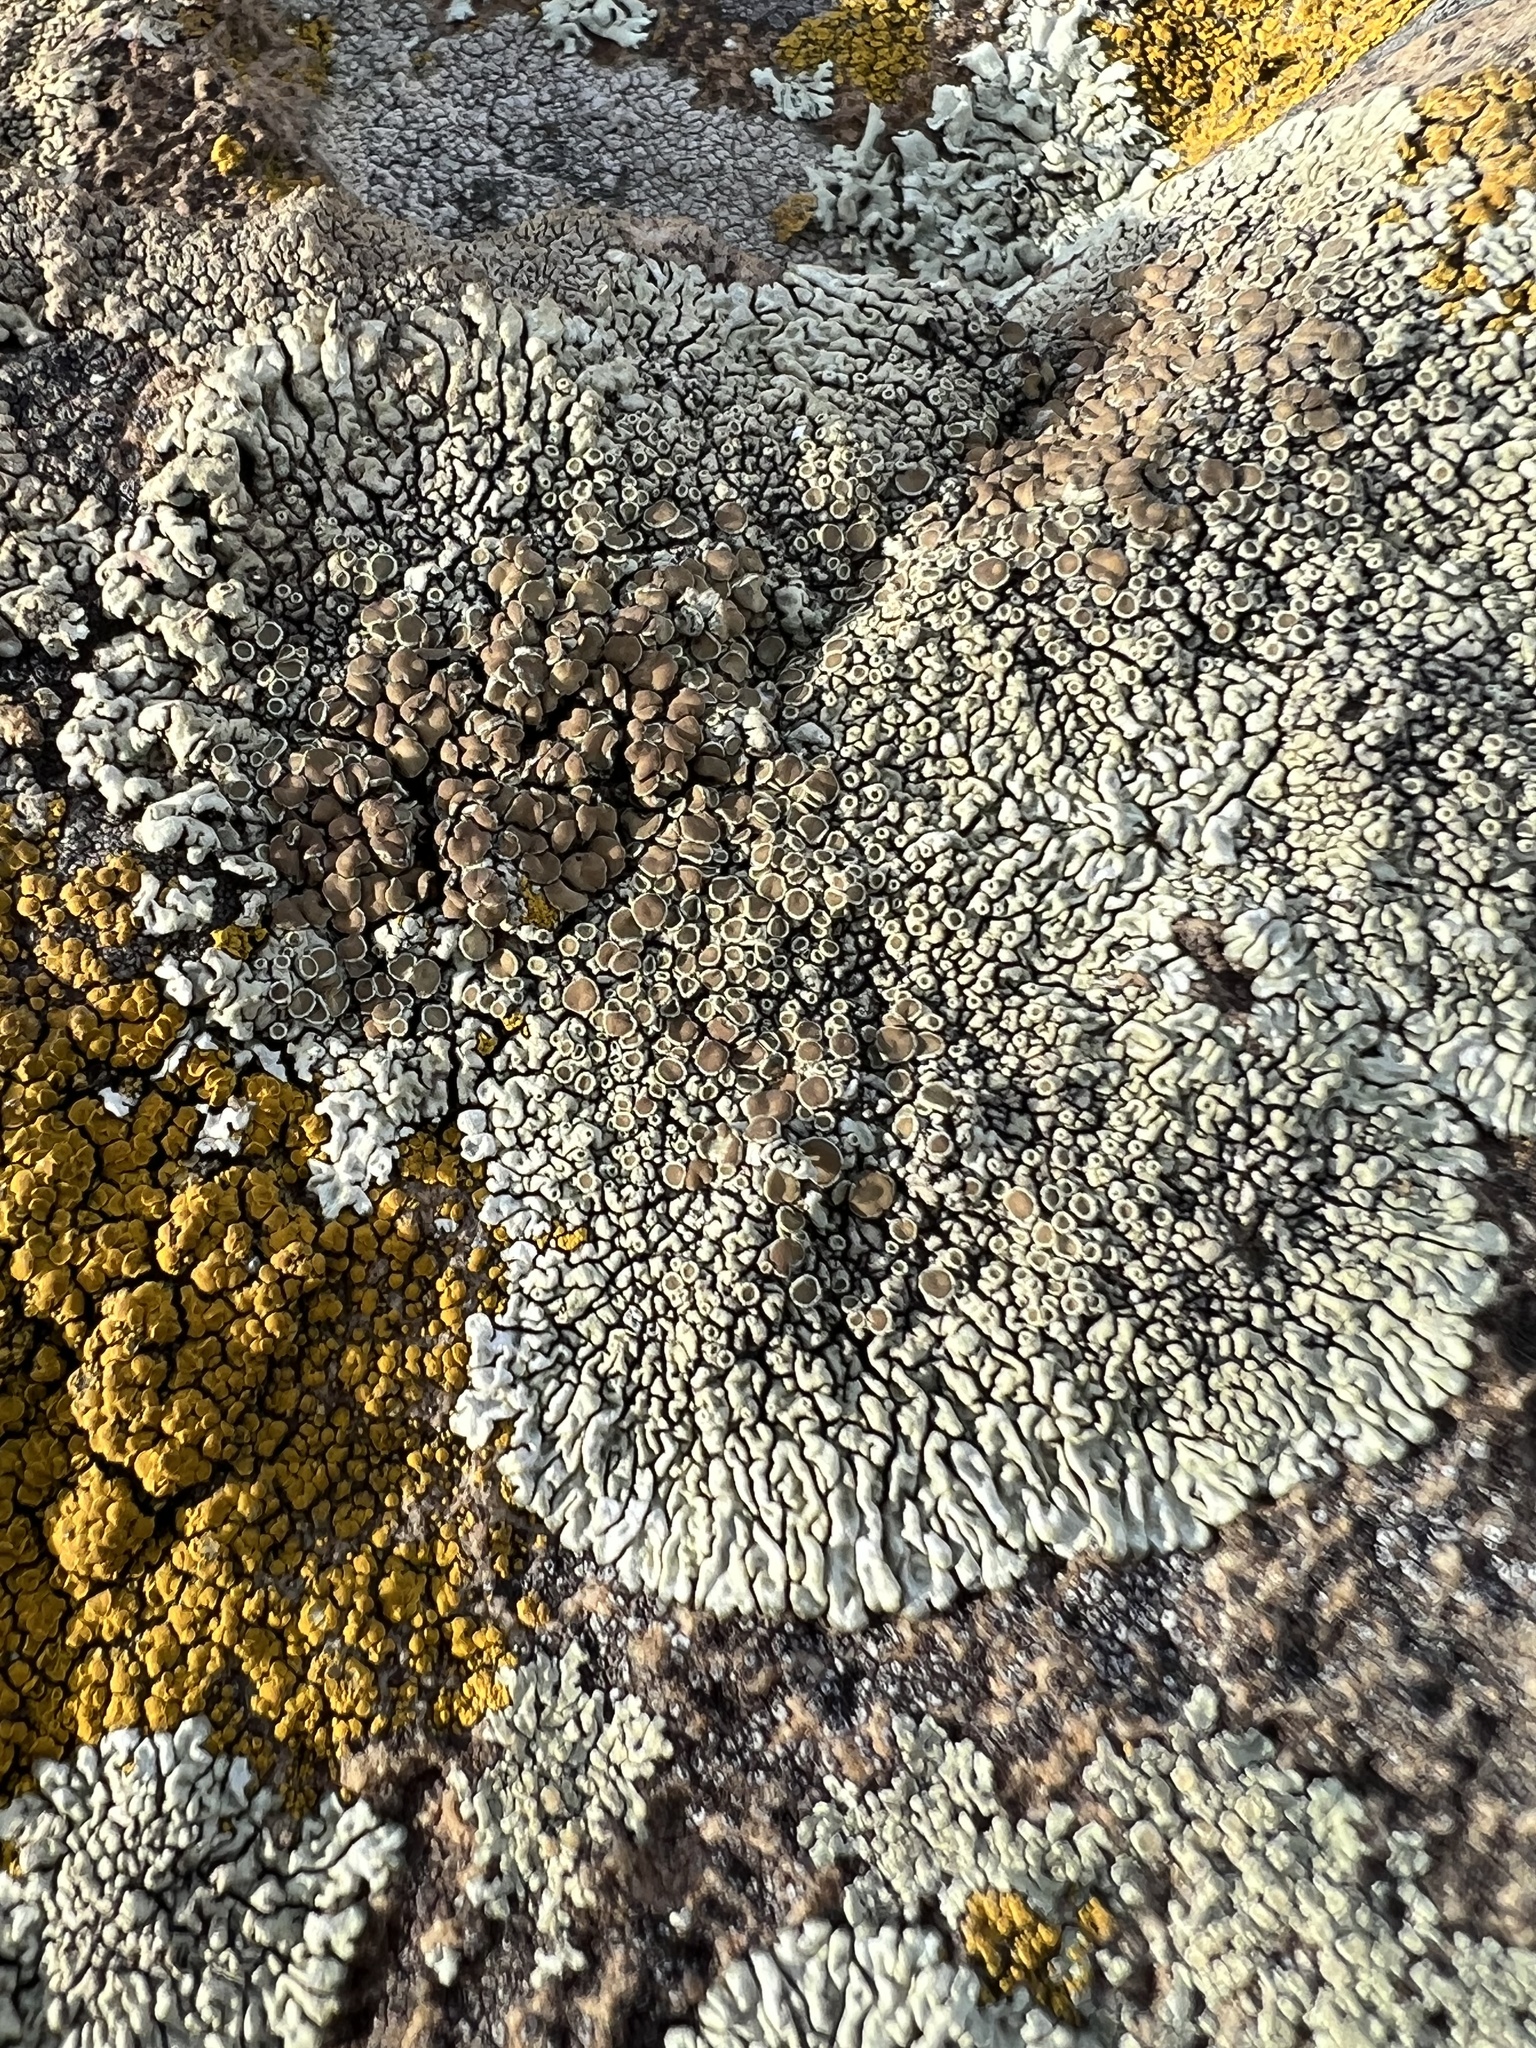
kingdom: Fungi
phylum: Ascomycota
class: Lecanoromycetes
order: Lecanorales
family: Lecanoraceae
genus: Protoparmeliopsis
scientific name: Protoparmeliopsis garovaglii
